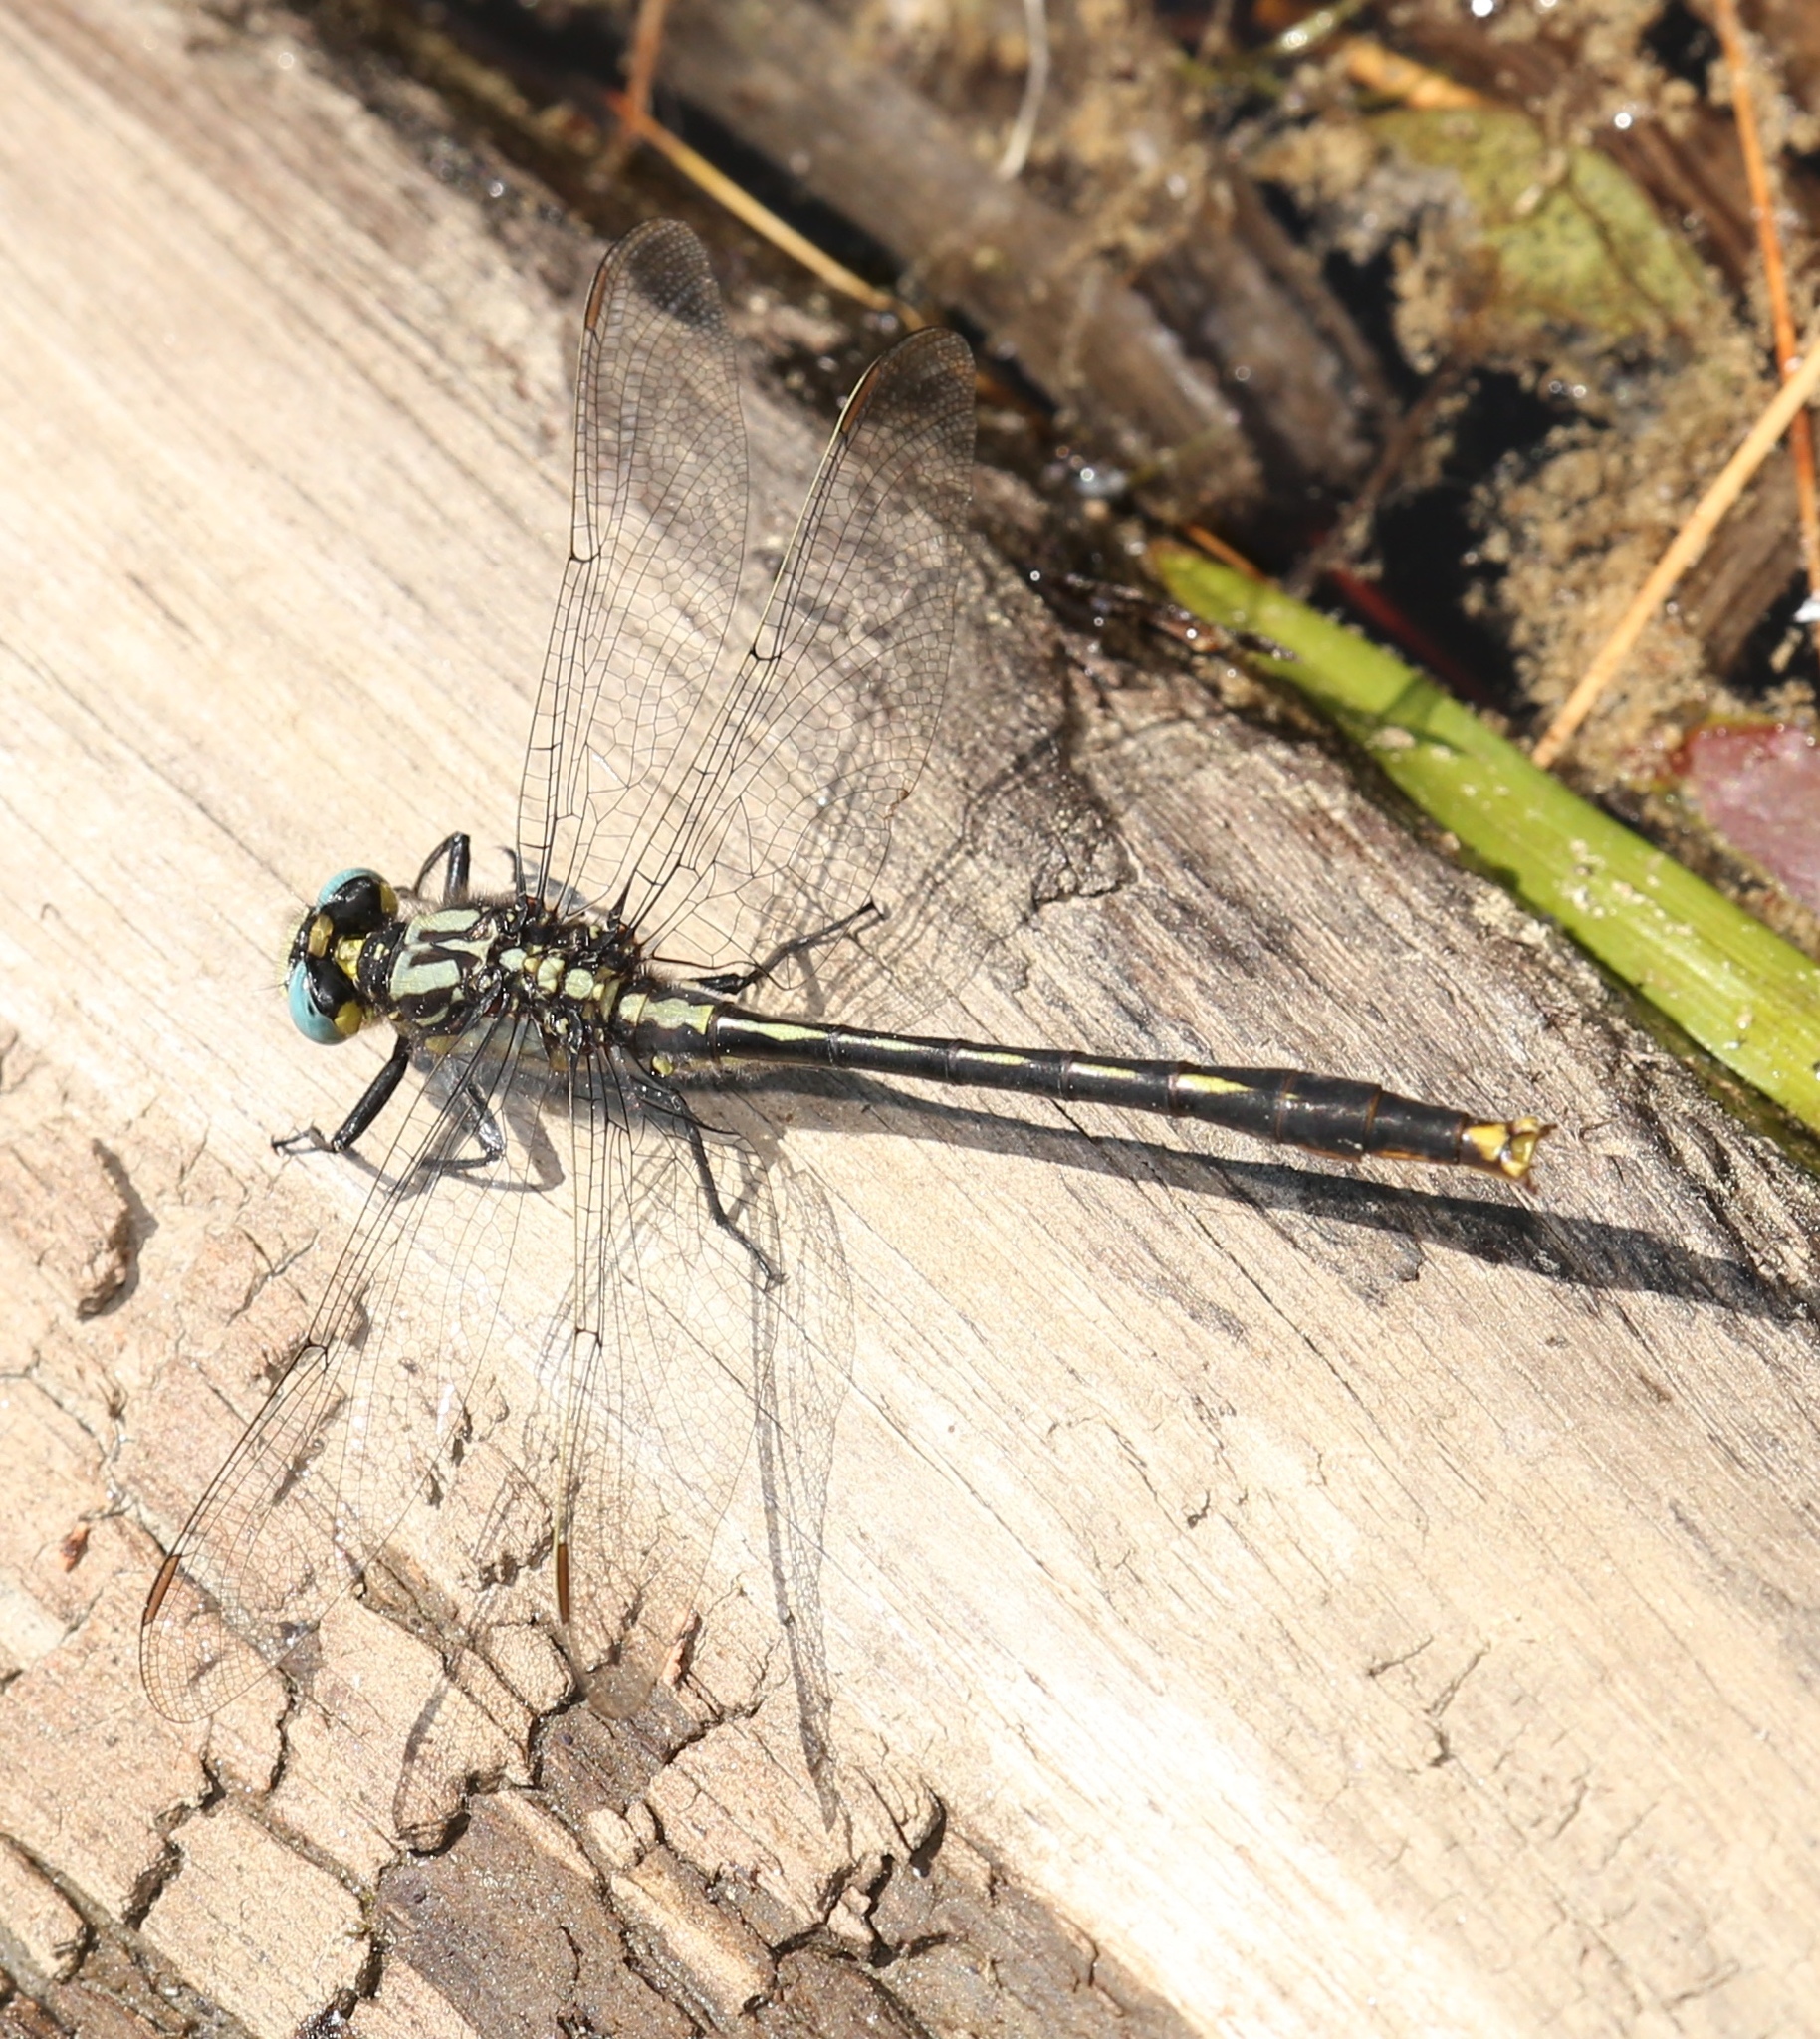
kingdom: Animalia
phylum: Arthropoda
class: Insecta
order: Odonata
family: Gomphidae
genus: Arigomphus
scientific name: Arigomphus furcifer
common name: Lilypad clubtail
